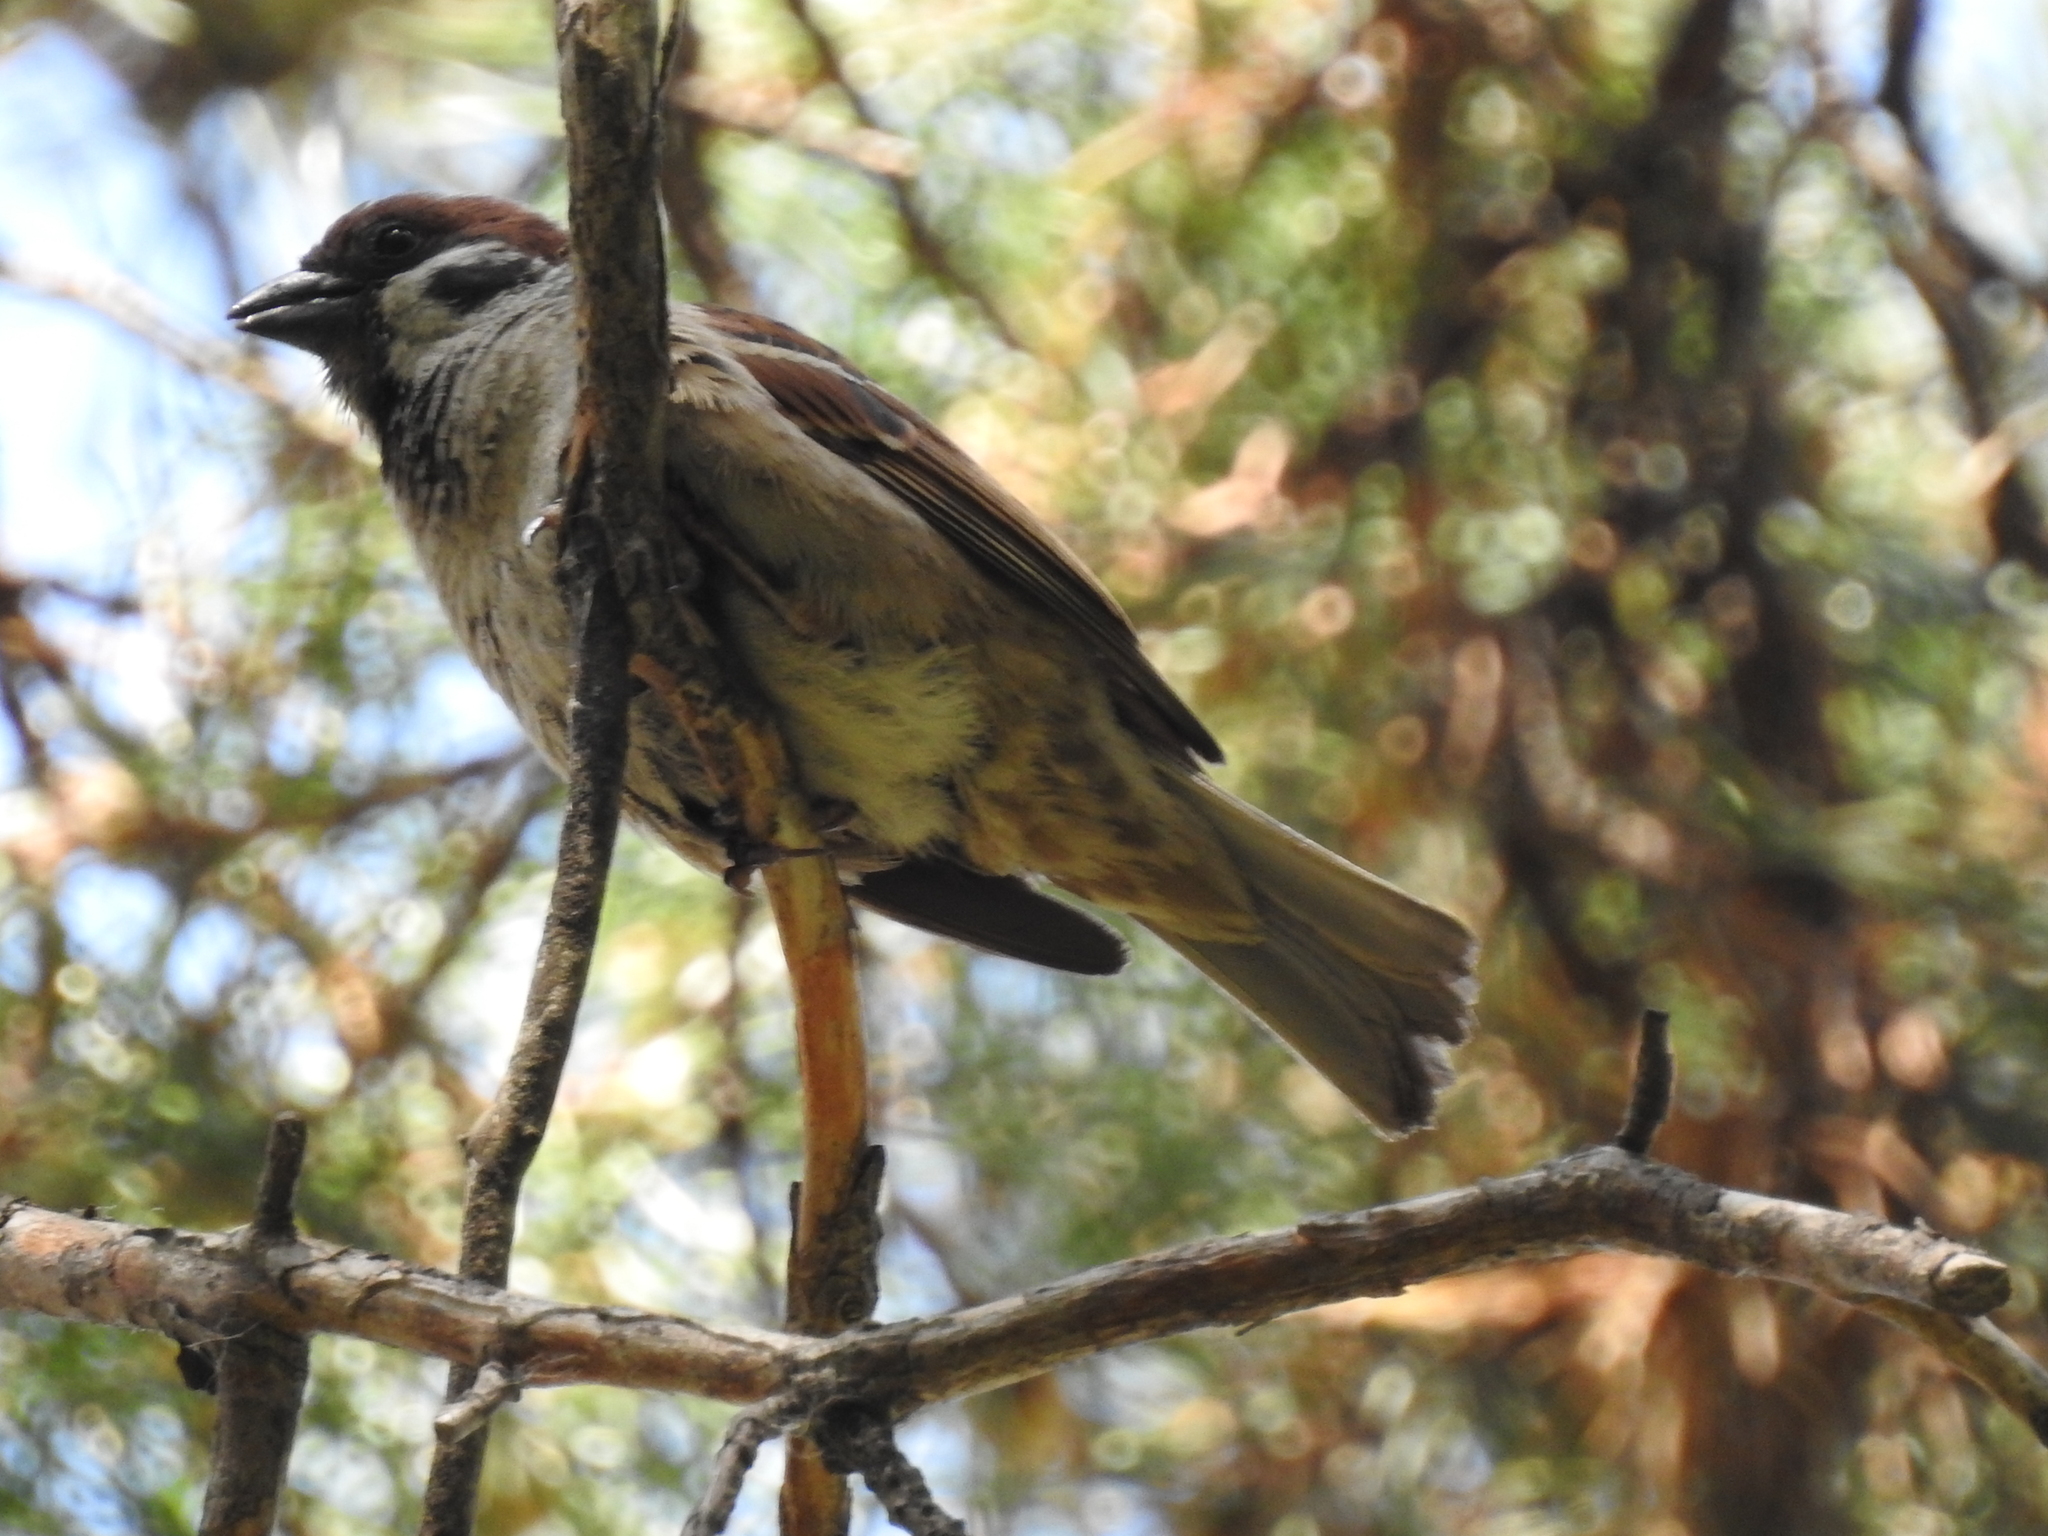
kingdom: Animalia
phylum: Chordata
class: Aves
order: Passeriformes
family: Passeridae
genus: Passer
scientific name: Passer montanus
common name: Eurasian tree sparrow
